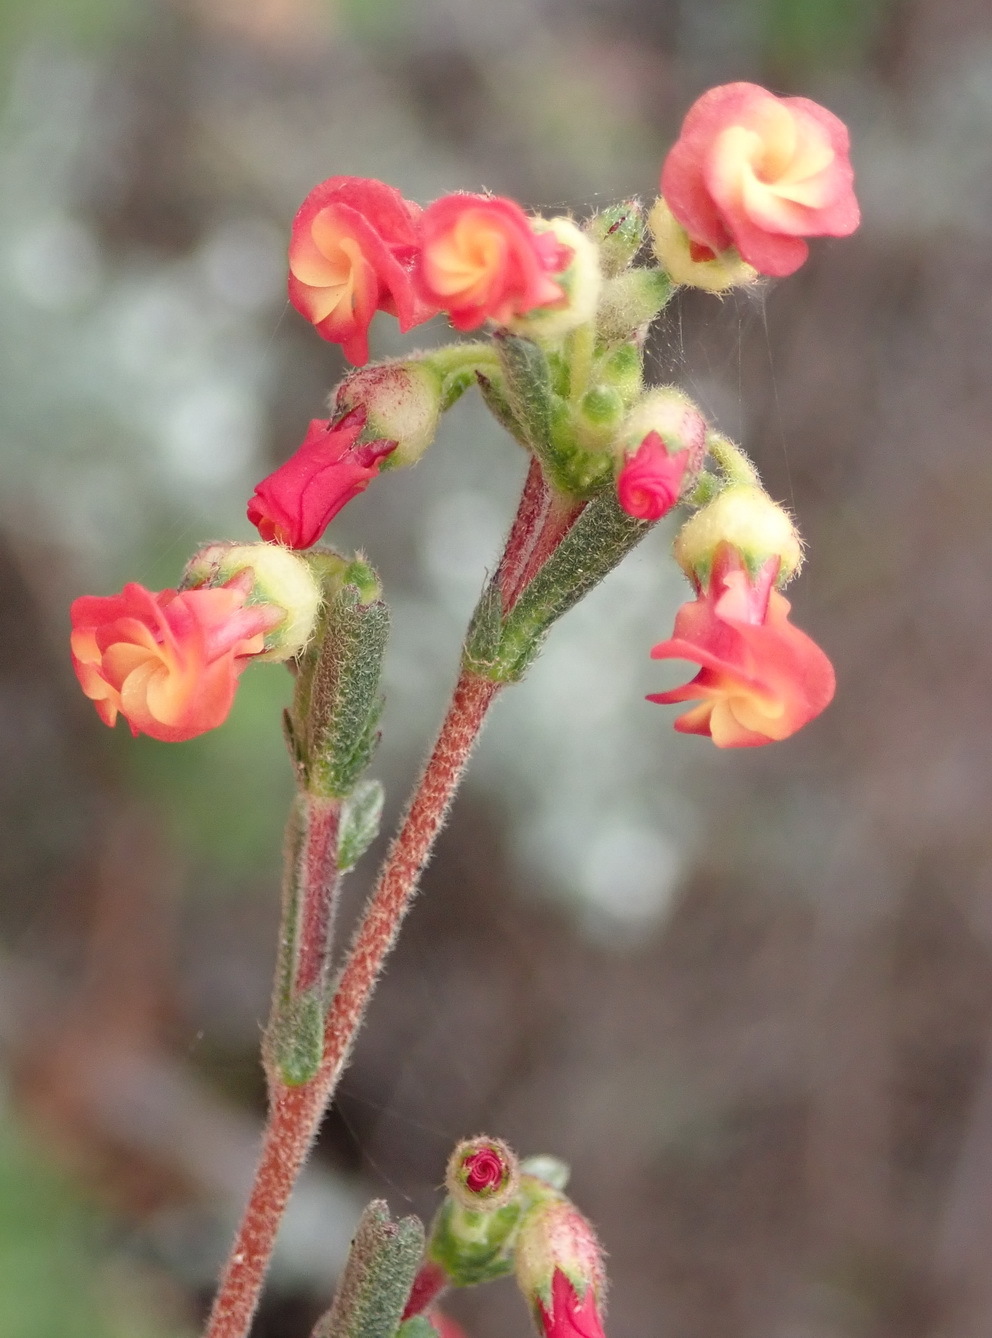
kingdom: Plantae
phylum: Tracheophyta
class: Magnoliopsida
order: Malvales
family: Malvaceae
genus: Hermannia
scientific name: Hermannia joubertiana
